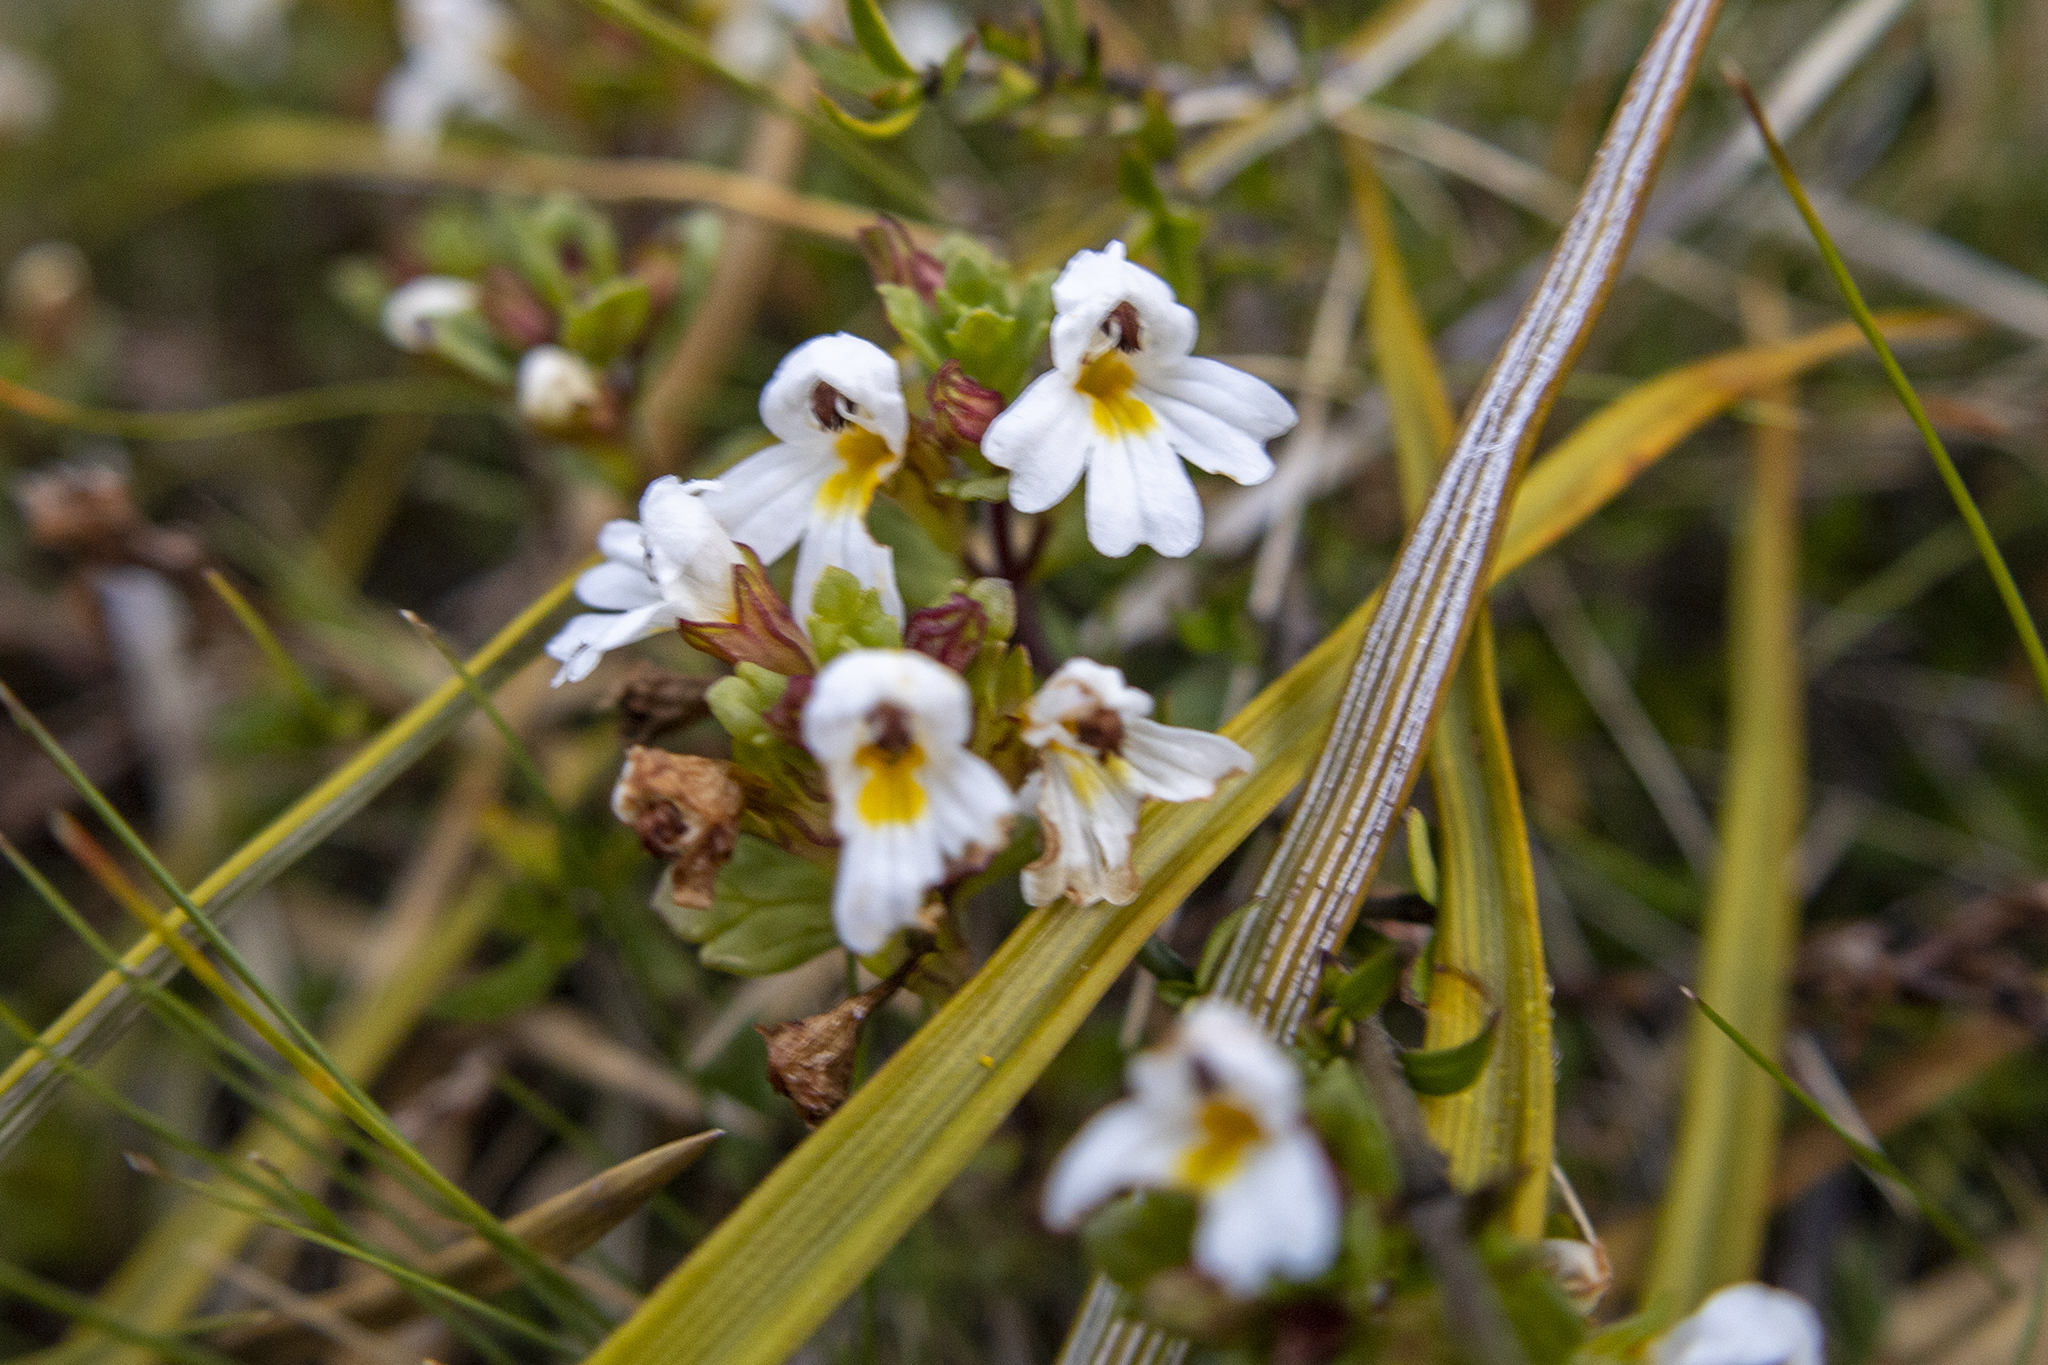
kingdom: Plantae
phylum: Tracheophyta
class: Magnoliopsida
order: Lamiales
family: Orobanchaceae
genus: Euphrasia
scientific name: Euphrasia laingii
